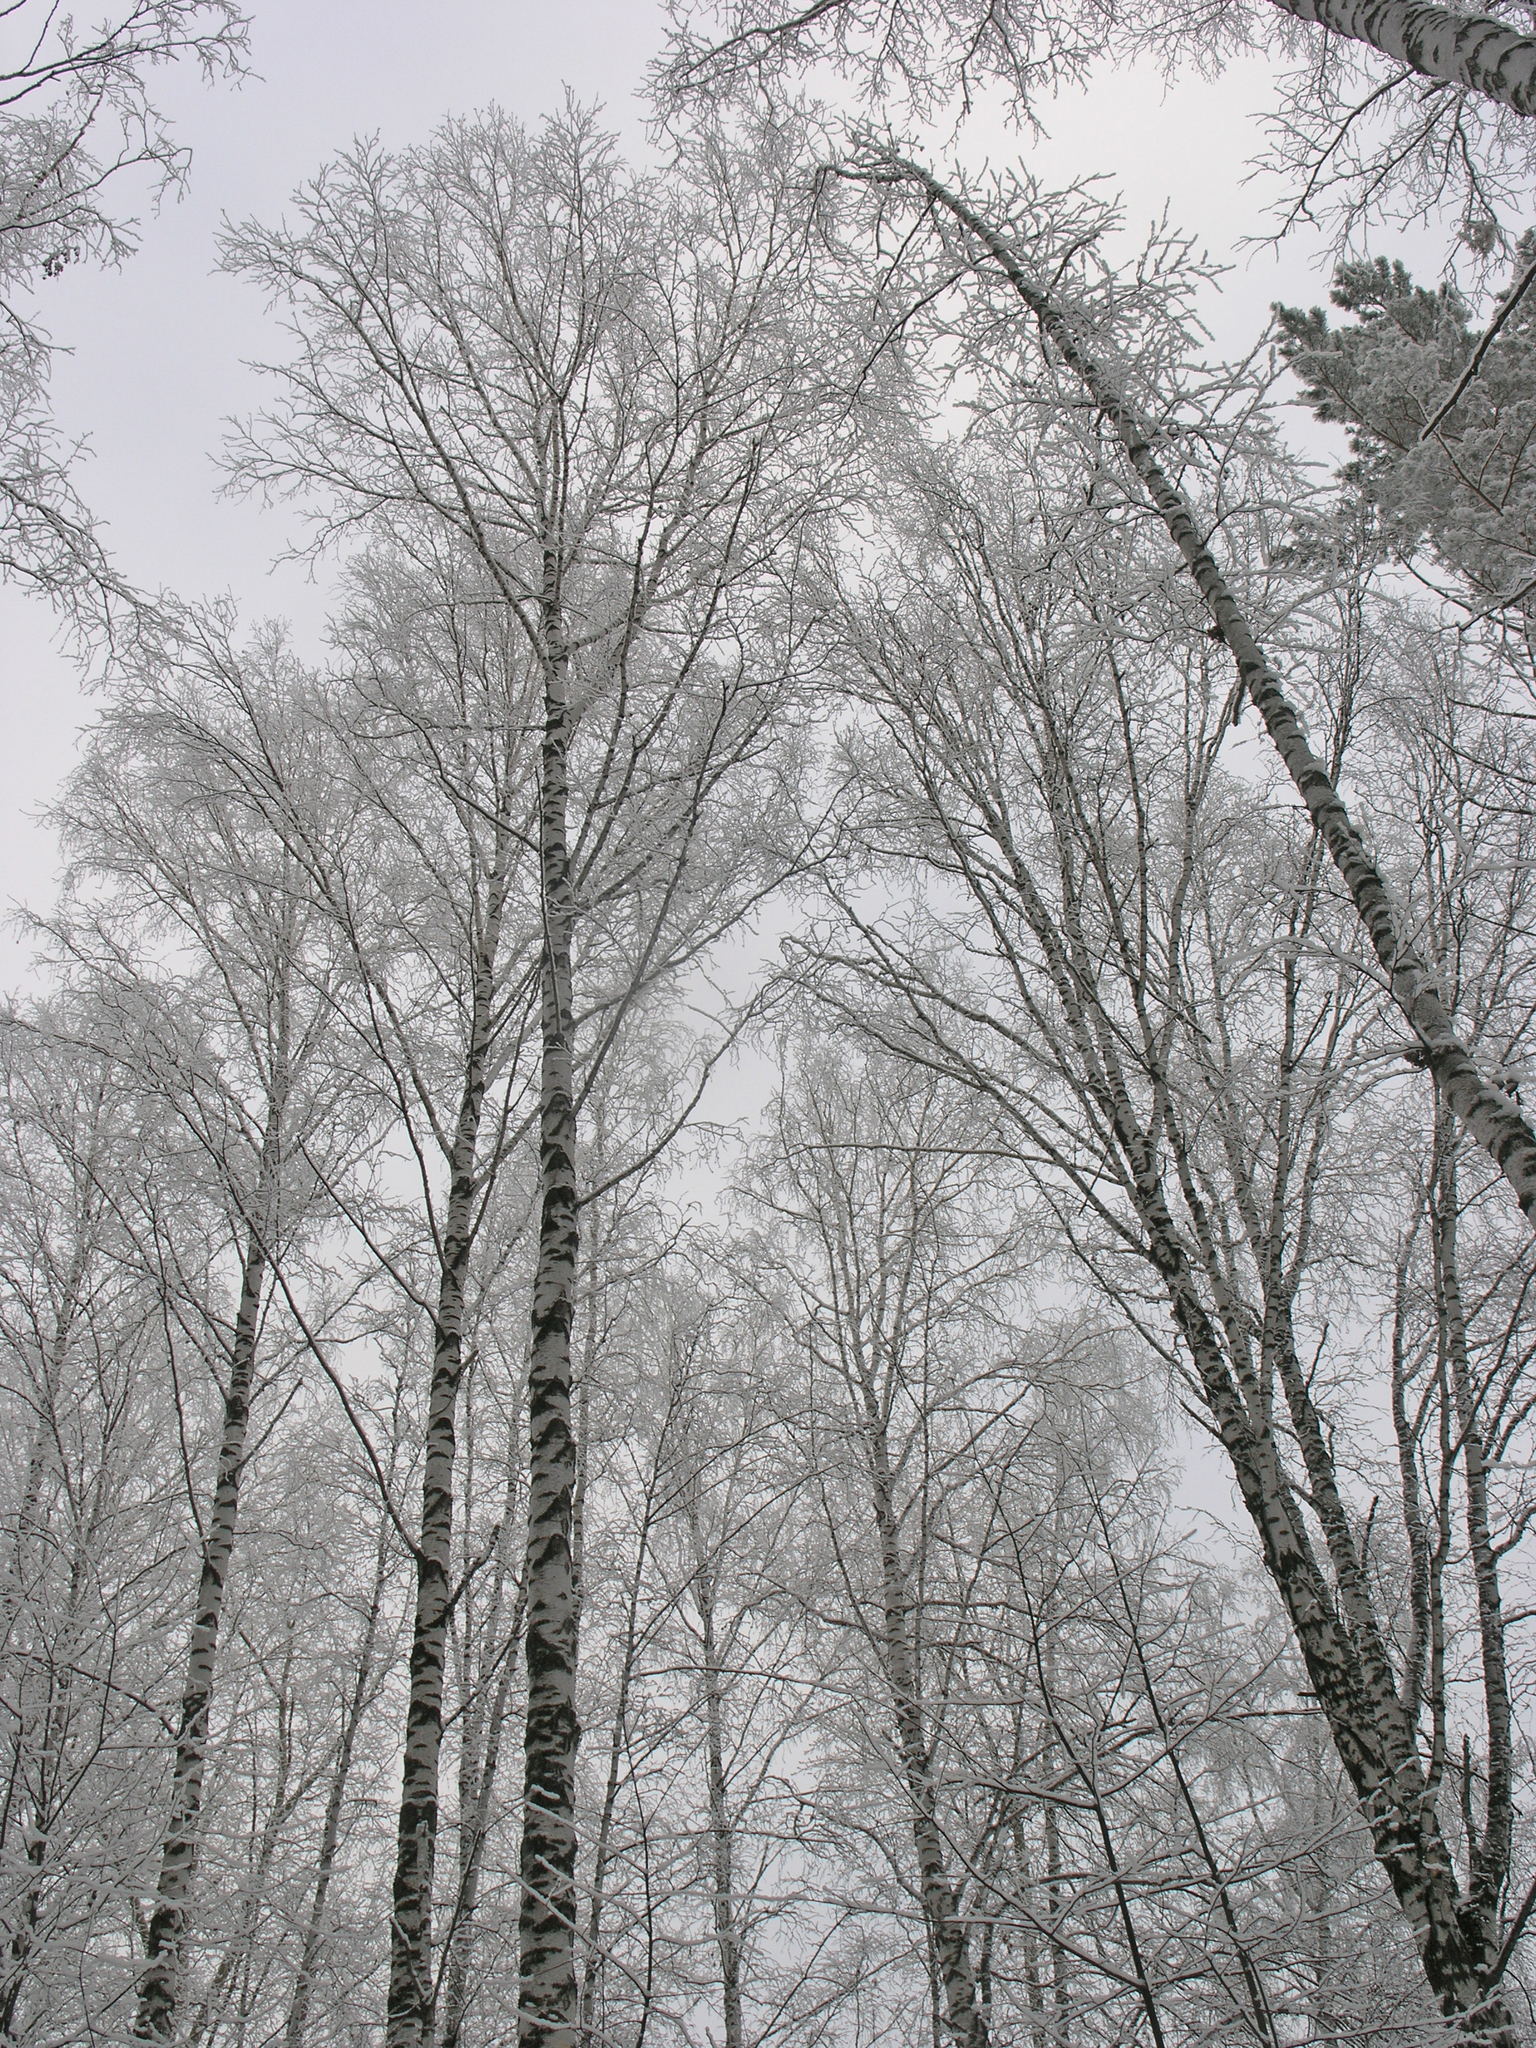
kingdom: Plantae
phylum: Tracheophyta
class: Magnoliopsida
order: Fagales
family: Betulaceae
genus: Betula
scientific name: Betula pendula
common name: Silver birch
